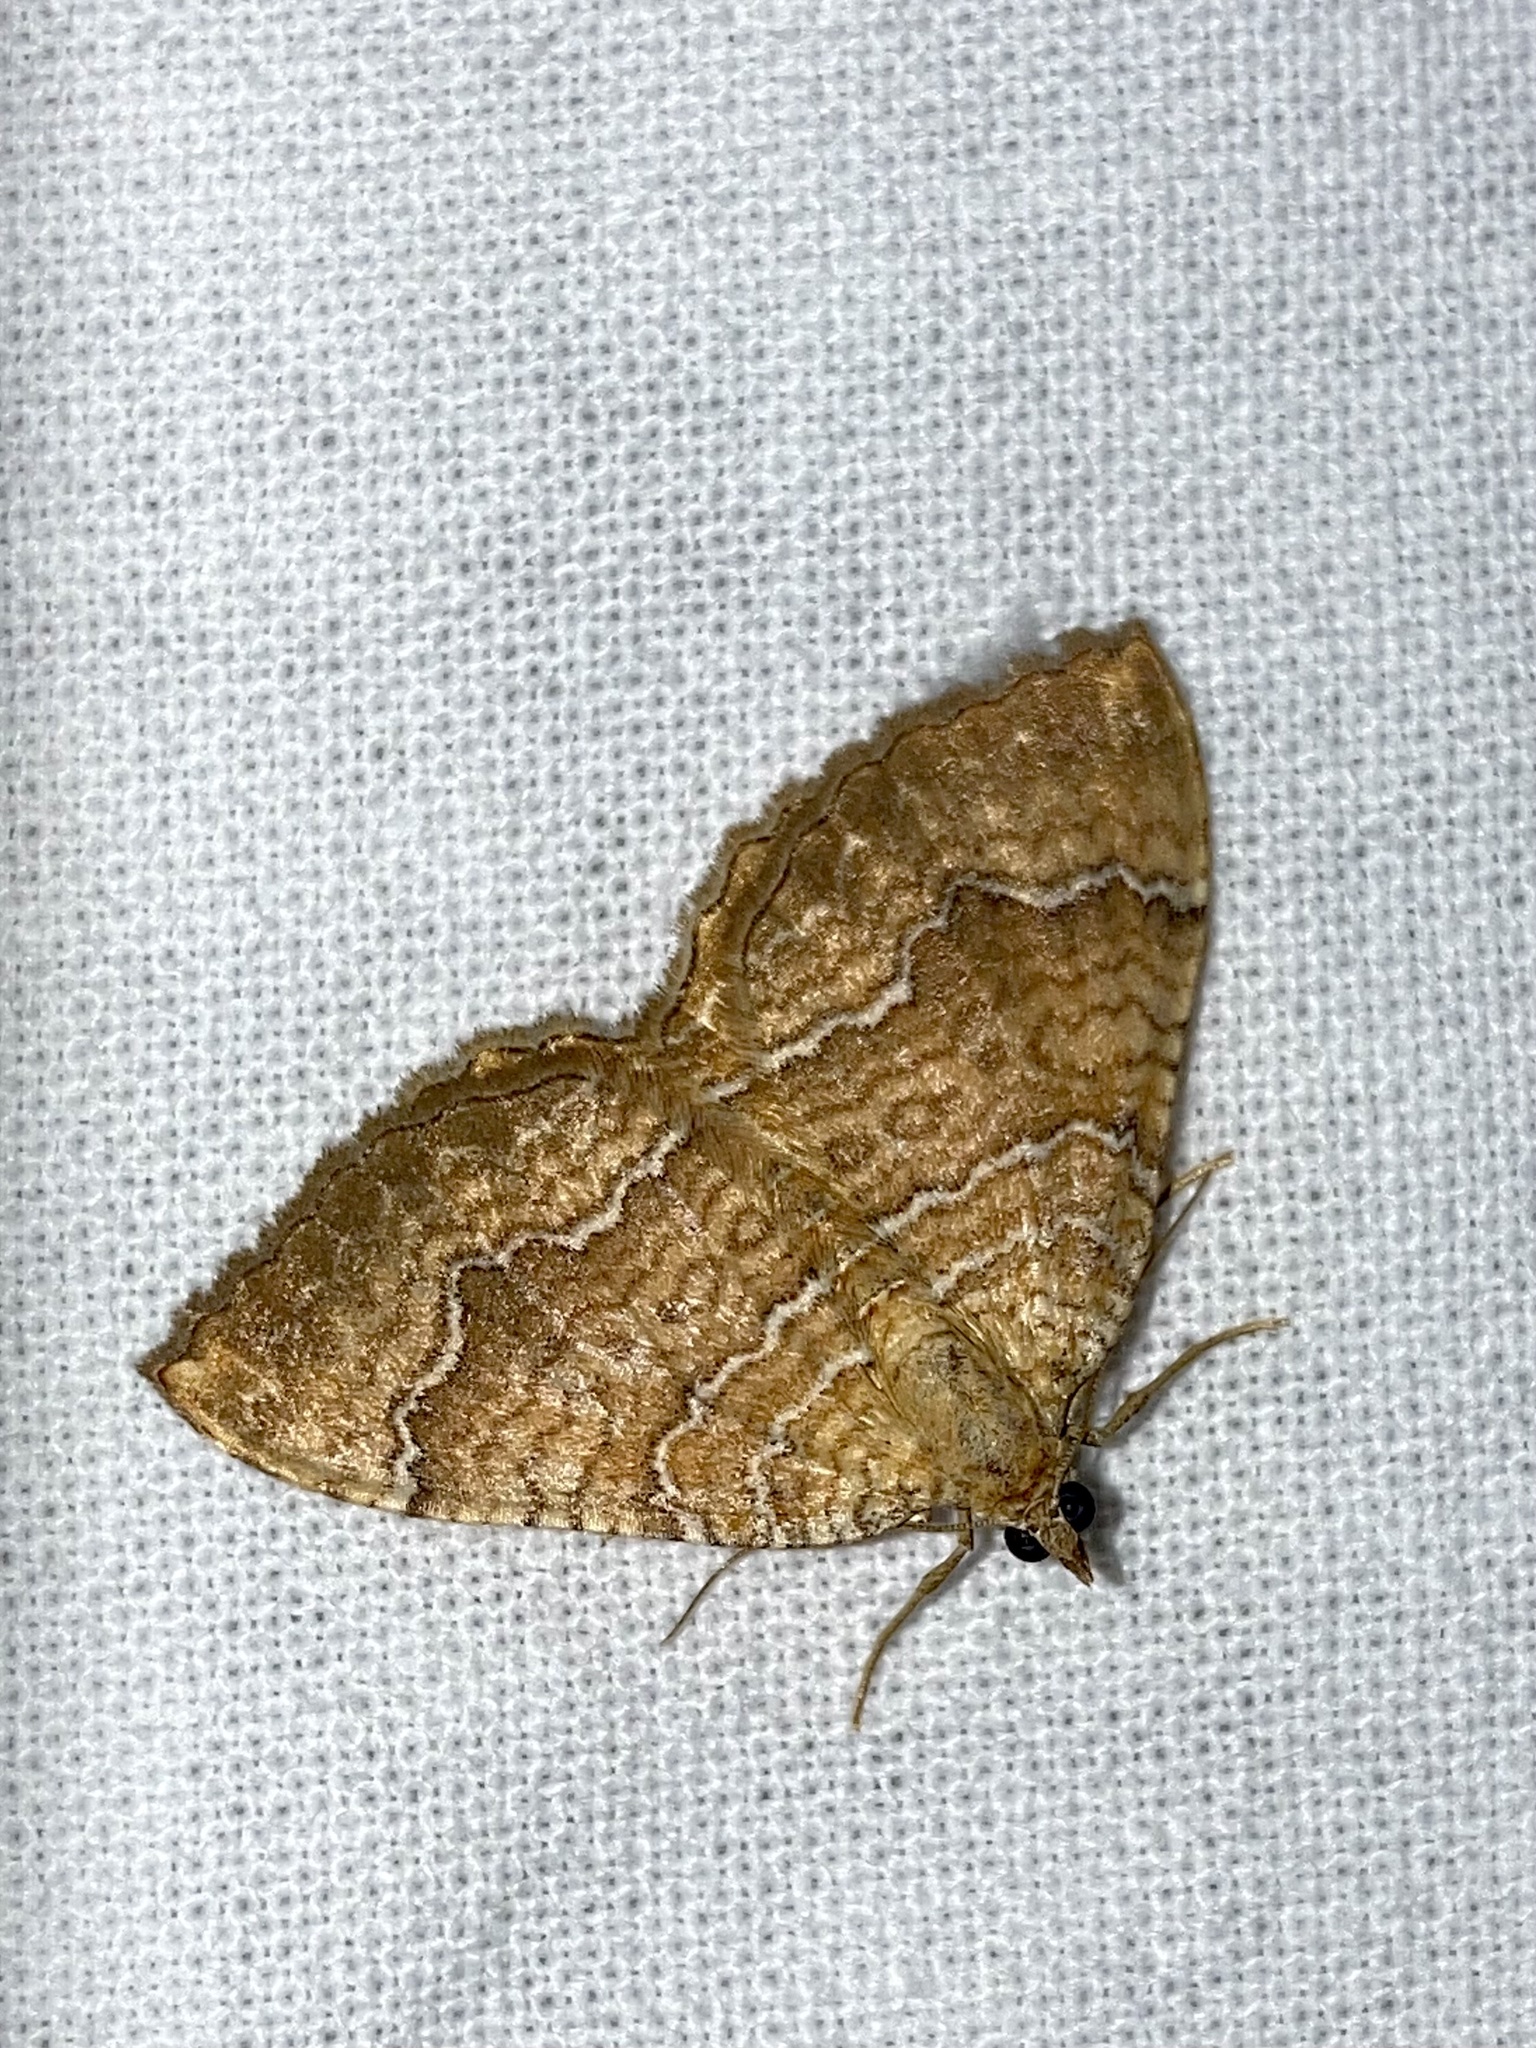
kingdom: Animalia
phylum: Arthropoda
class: Insecta
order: Lepidoptera
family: Geometridae
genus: Camptogramma
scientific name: Camptogramma bilineata
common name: Yellow shell
